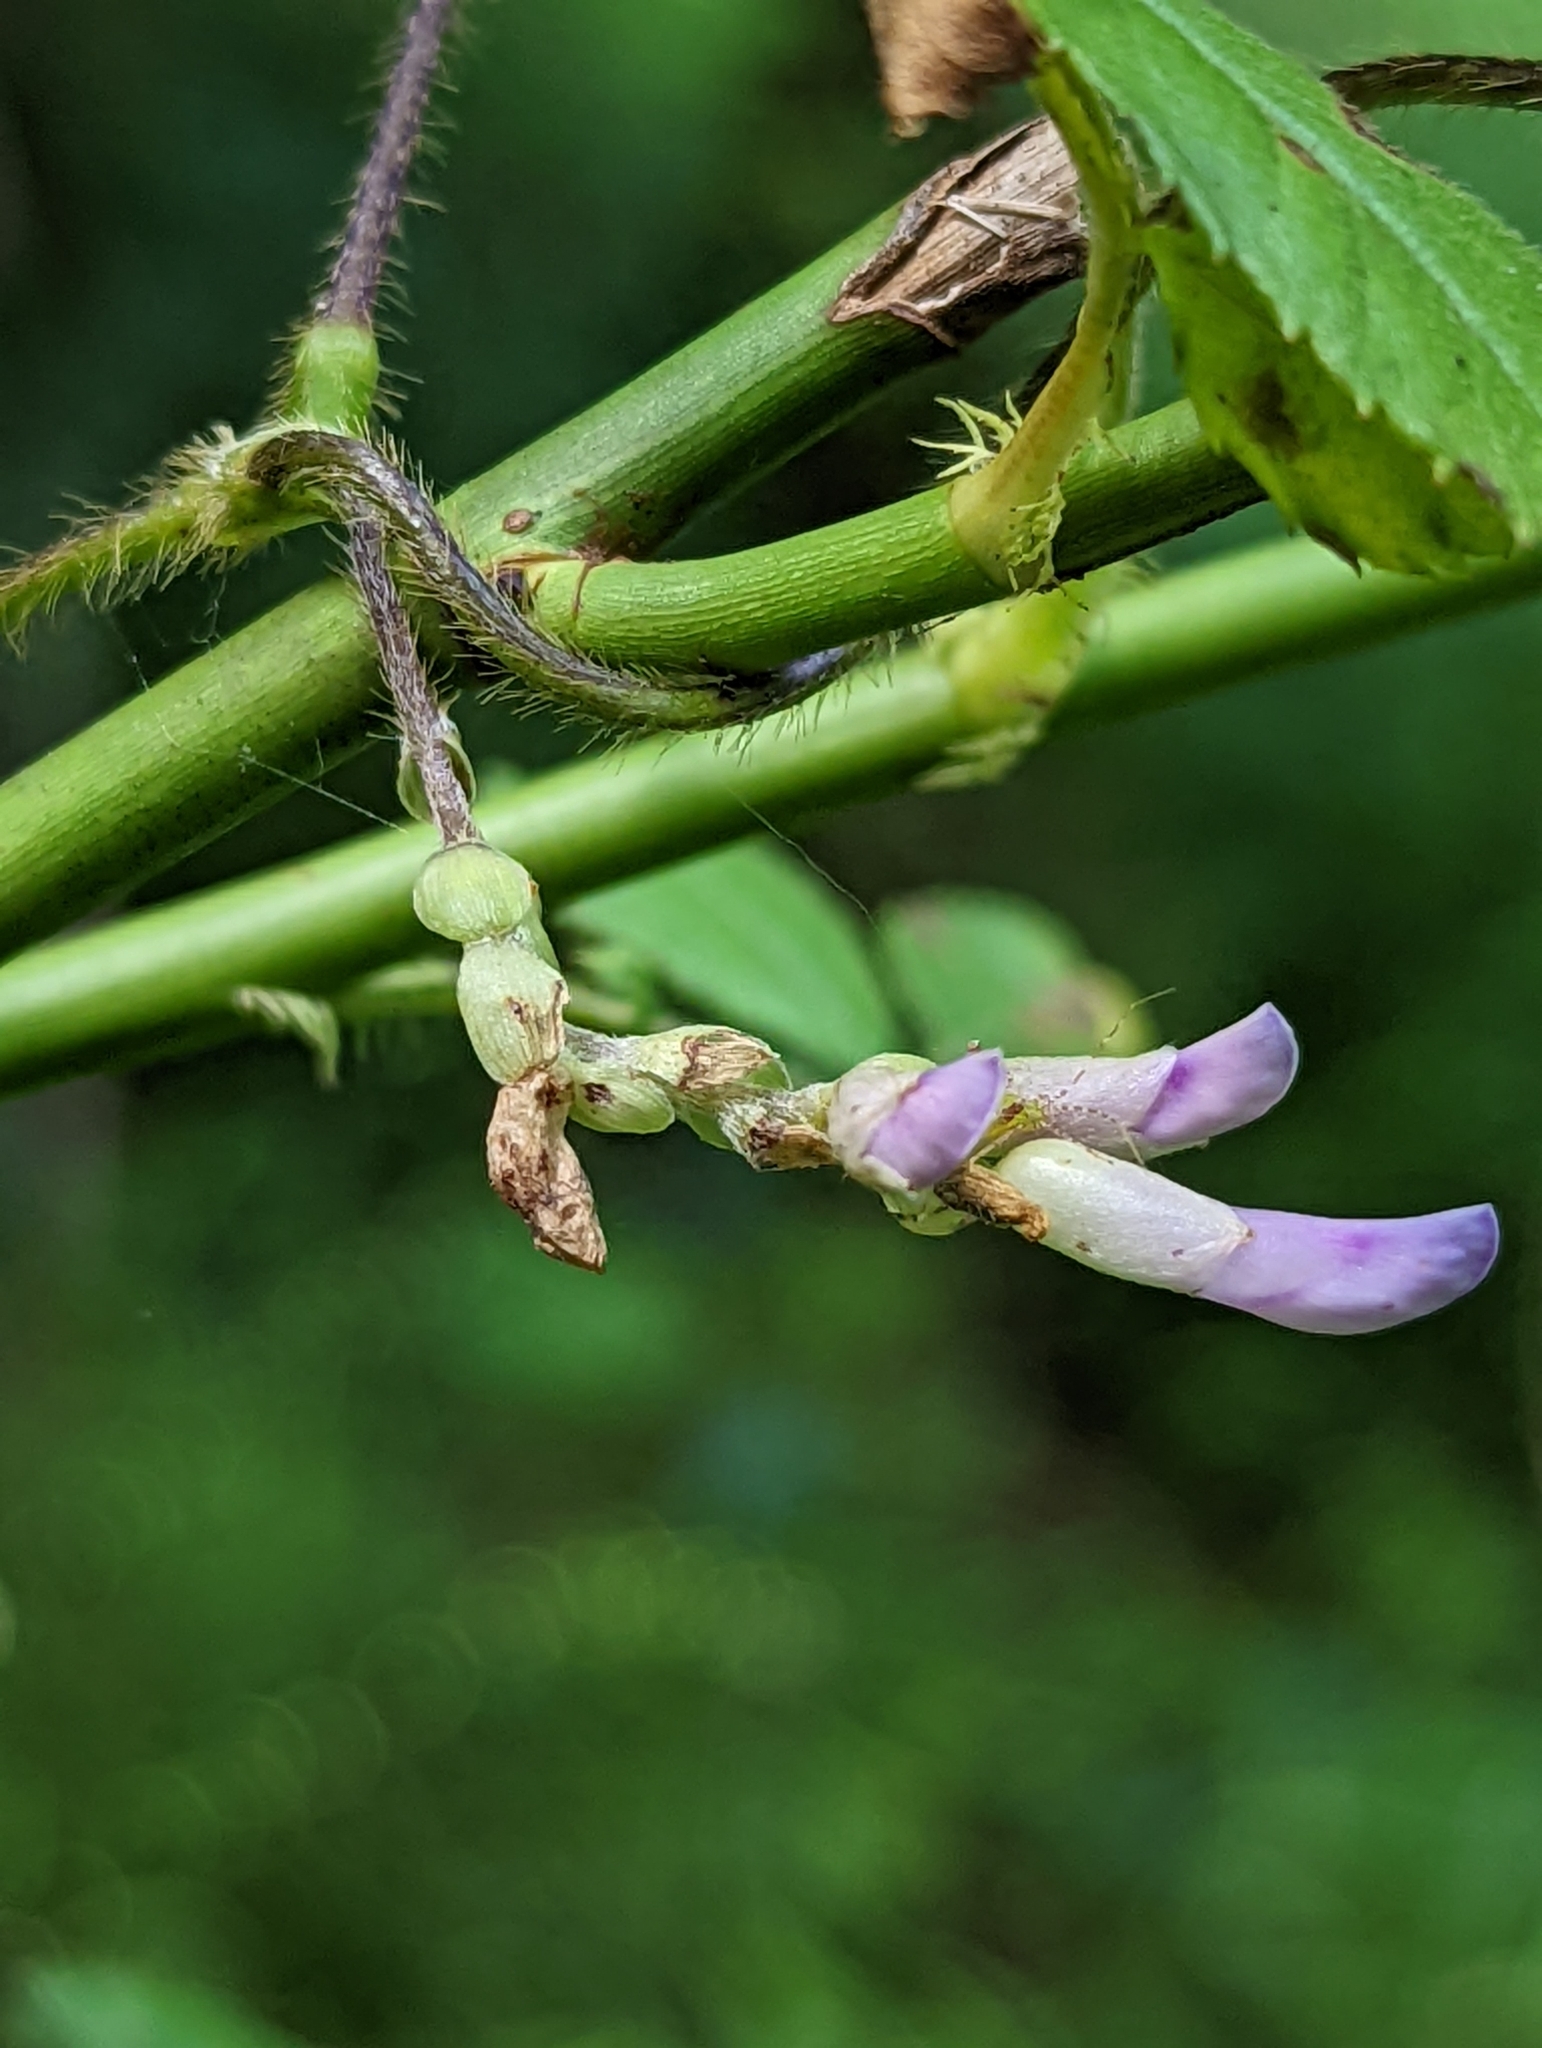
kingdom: Plantae
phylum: Tracheophyta
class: Magnoliopsida
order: Fabales
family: Fabaceae
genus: Amphicarpaea
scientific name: Amphicarpaea bracteata
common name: American hog peanut
